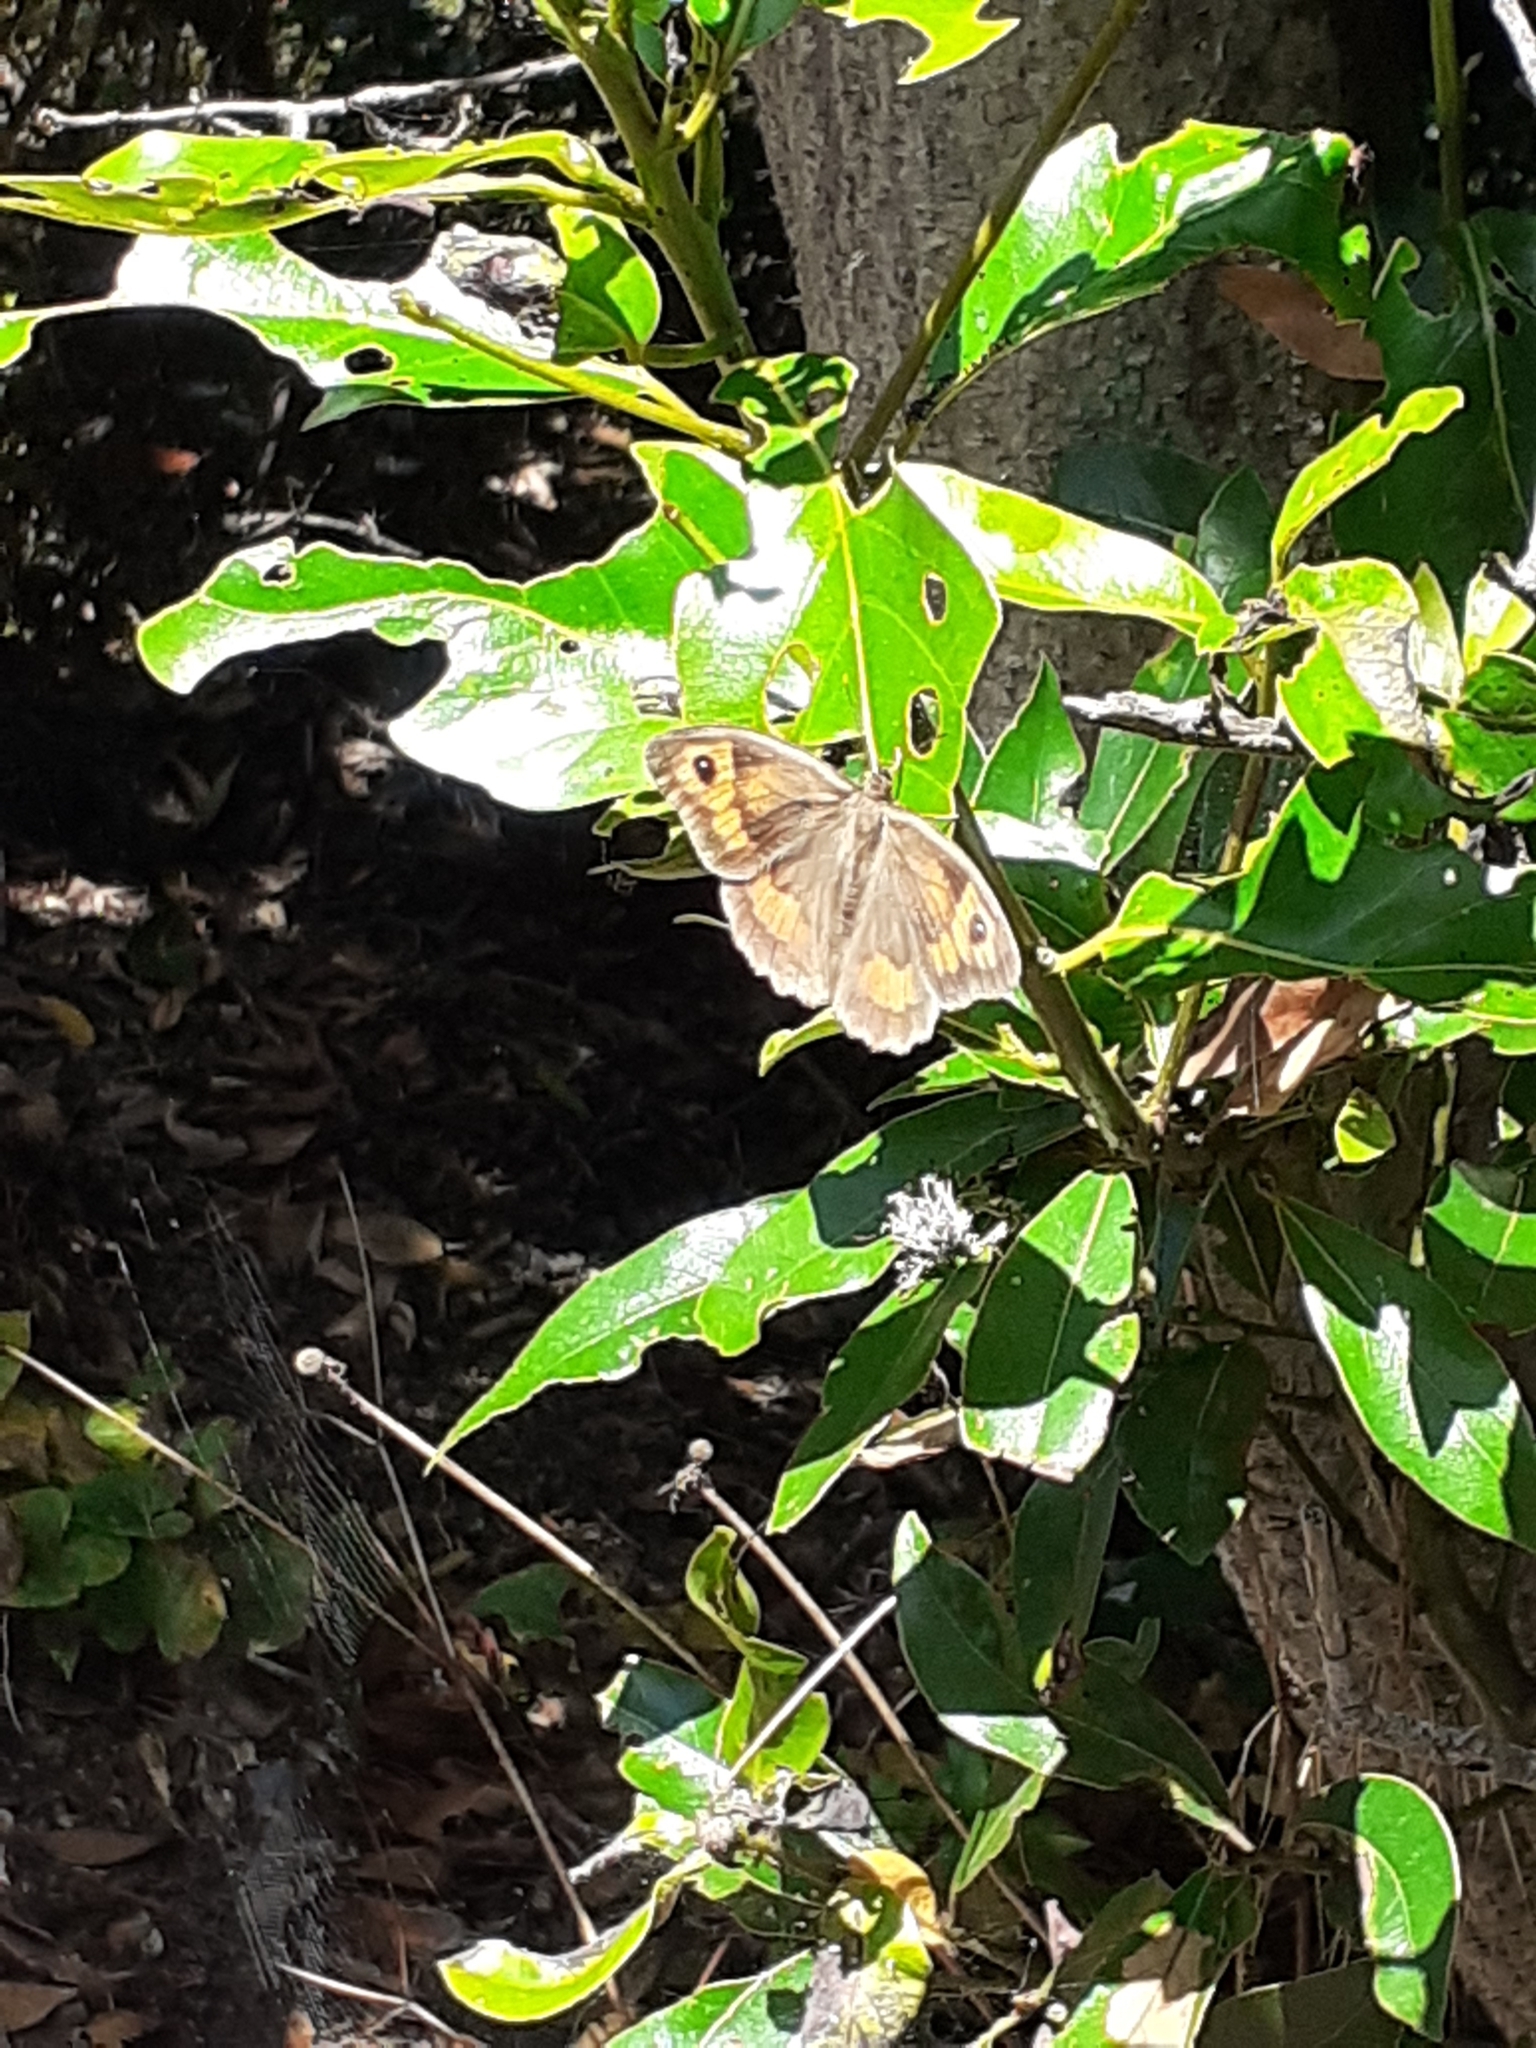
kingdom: Animalia
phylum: Arthropoda
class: Insecta
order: Lepidoptera
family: Nymphalidae
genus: Maniola
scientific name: Maniola jurtina
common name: Meadow brown
